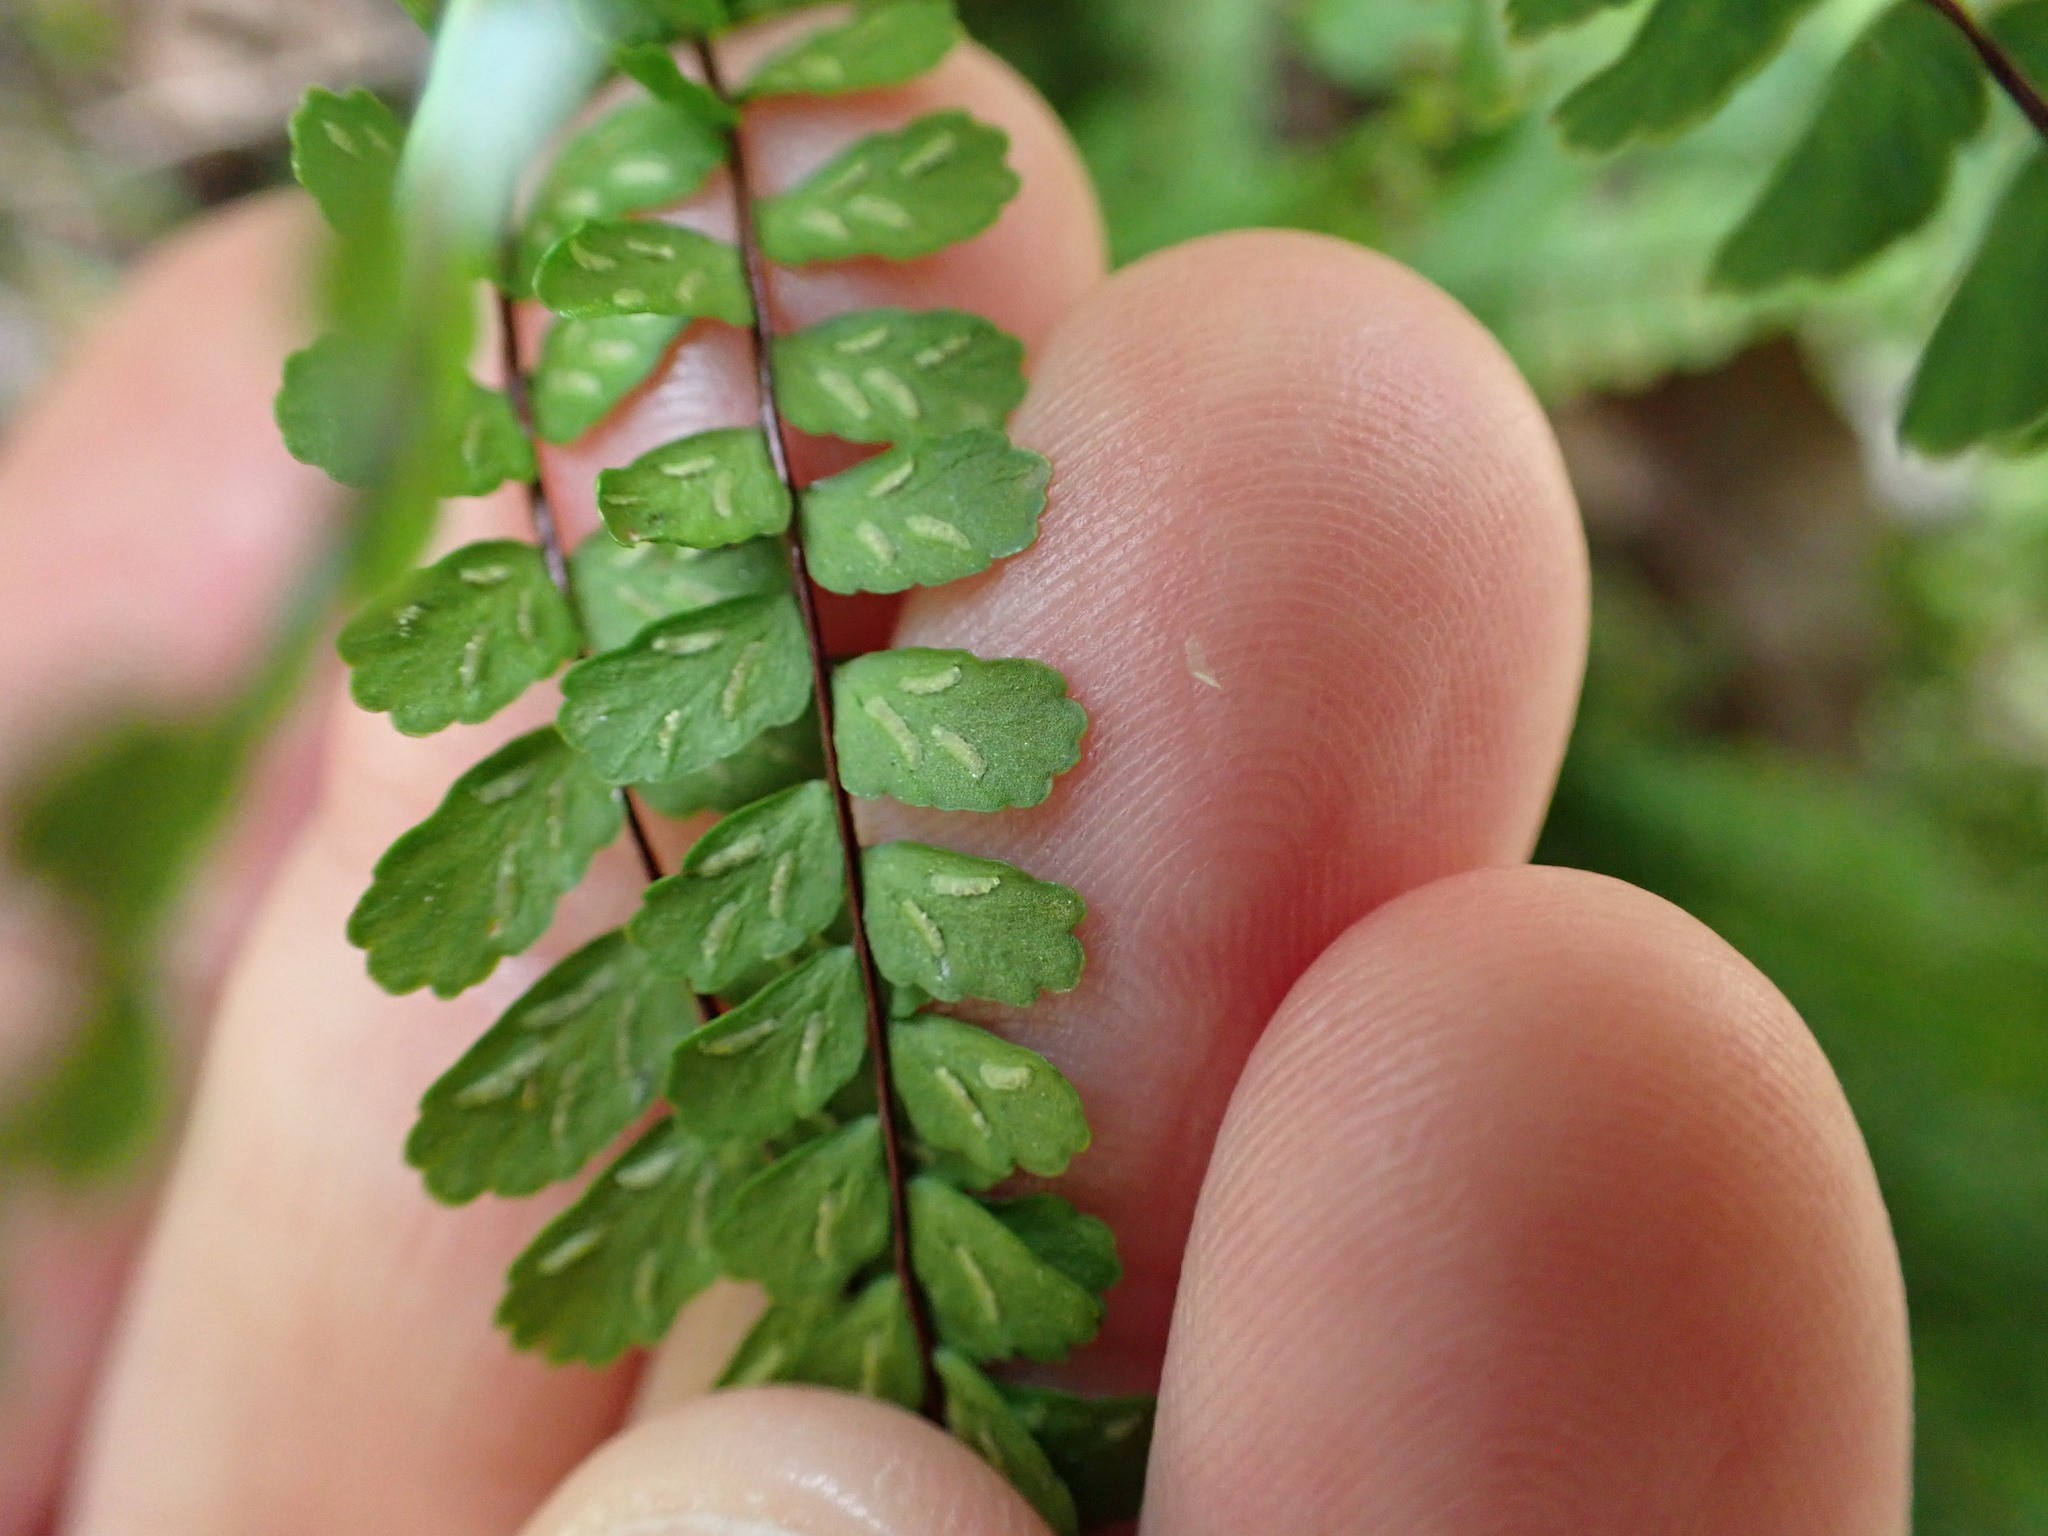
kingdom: Plantae
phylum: Tracheophyta
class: Polypodiopsida
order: Polypodiales
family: Aspleniaceae
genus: Asplenium
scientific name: Asplenium trichomanes
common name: Maidenhair spleenwort
